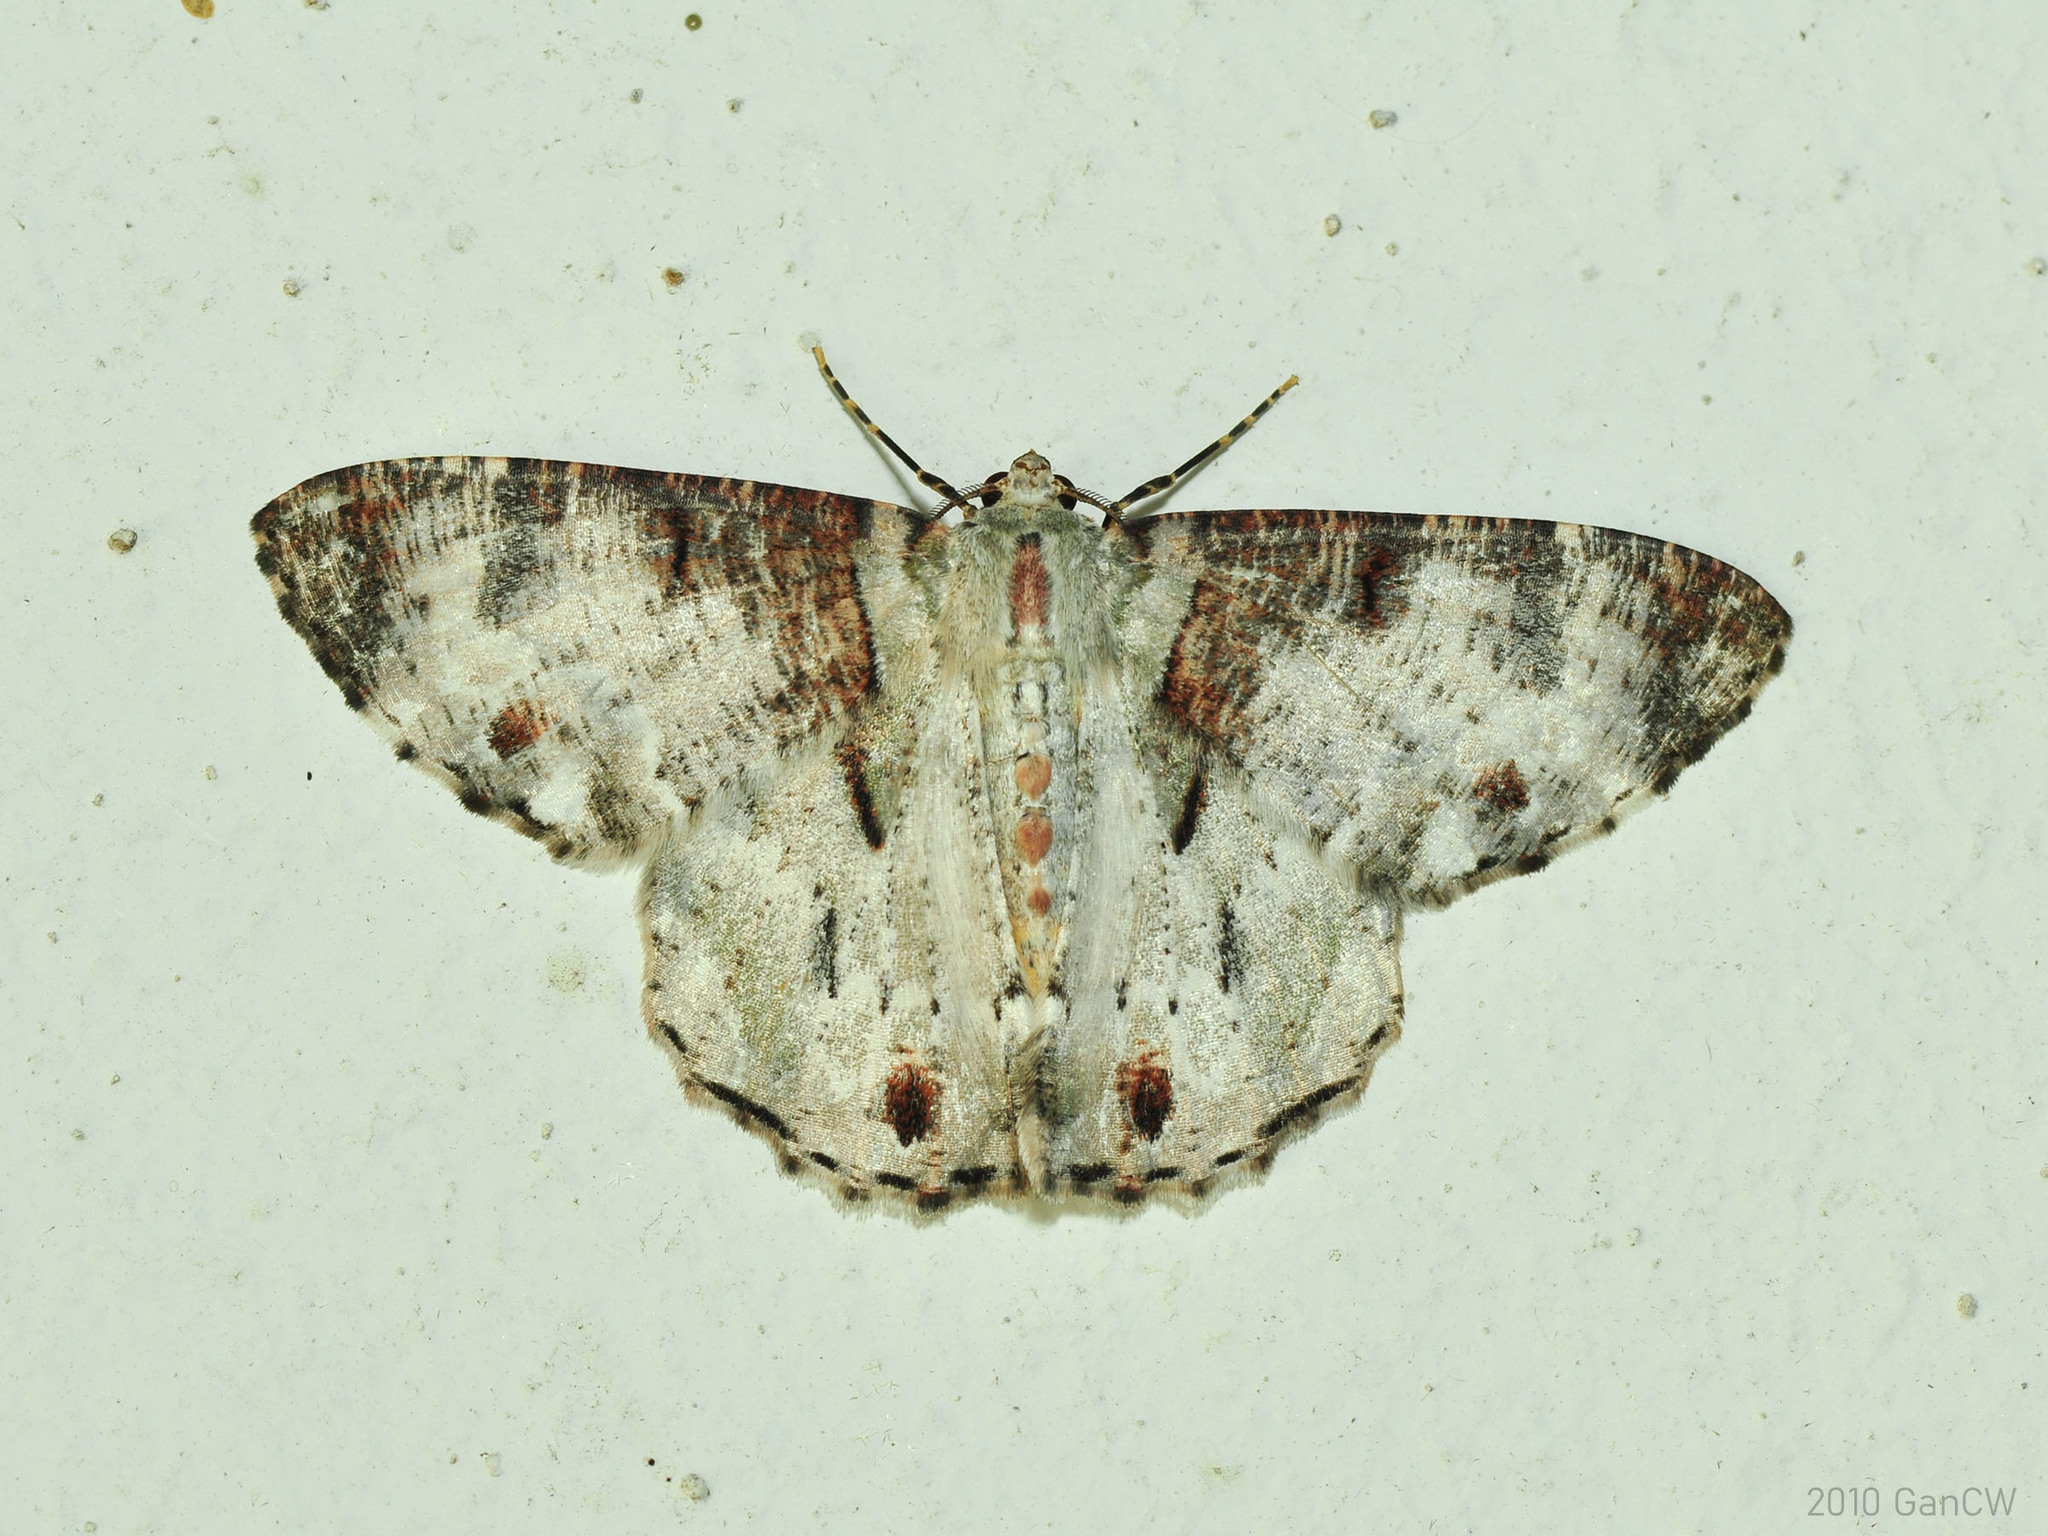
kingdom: Animalia
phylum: Arthropoda
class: Insecta
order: Lepidoptera
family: Geometridae
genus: Pachyodes
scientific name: Pachyodes pratti
